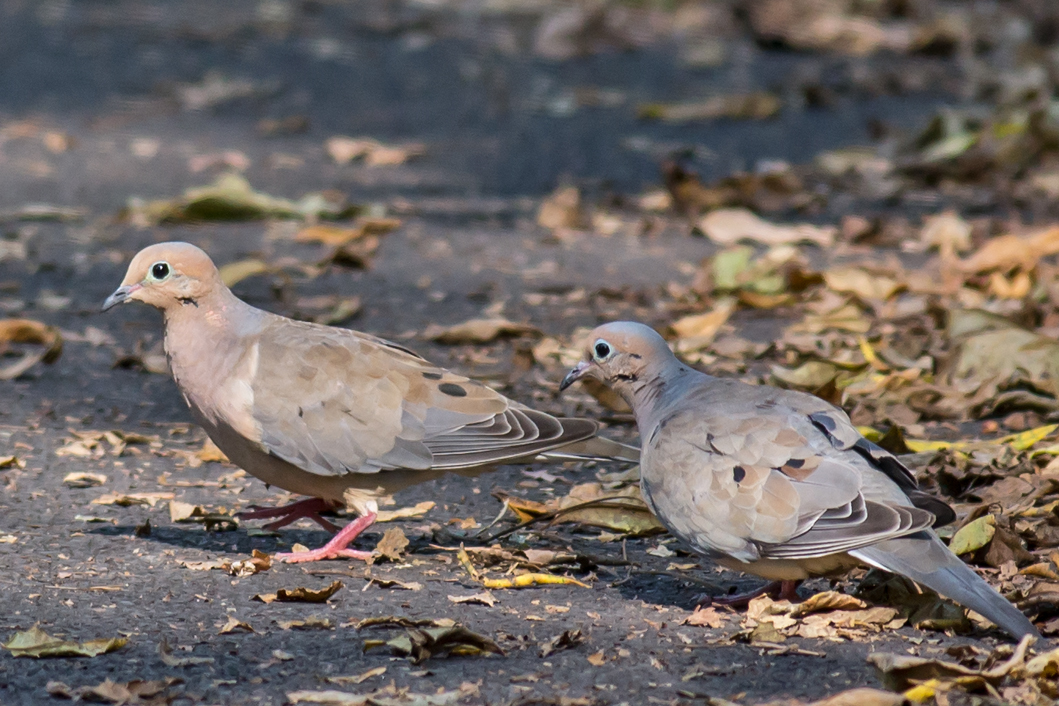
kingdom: Animalia
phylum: Chordata
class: Aves
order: Columbiformes
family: Columbidae
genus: Zenaida
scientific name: Zenaida macroura
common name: Mourning dove
